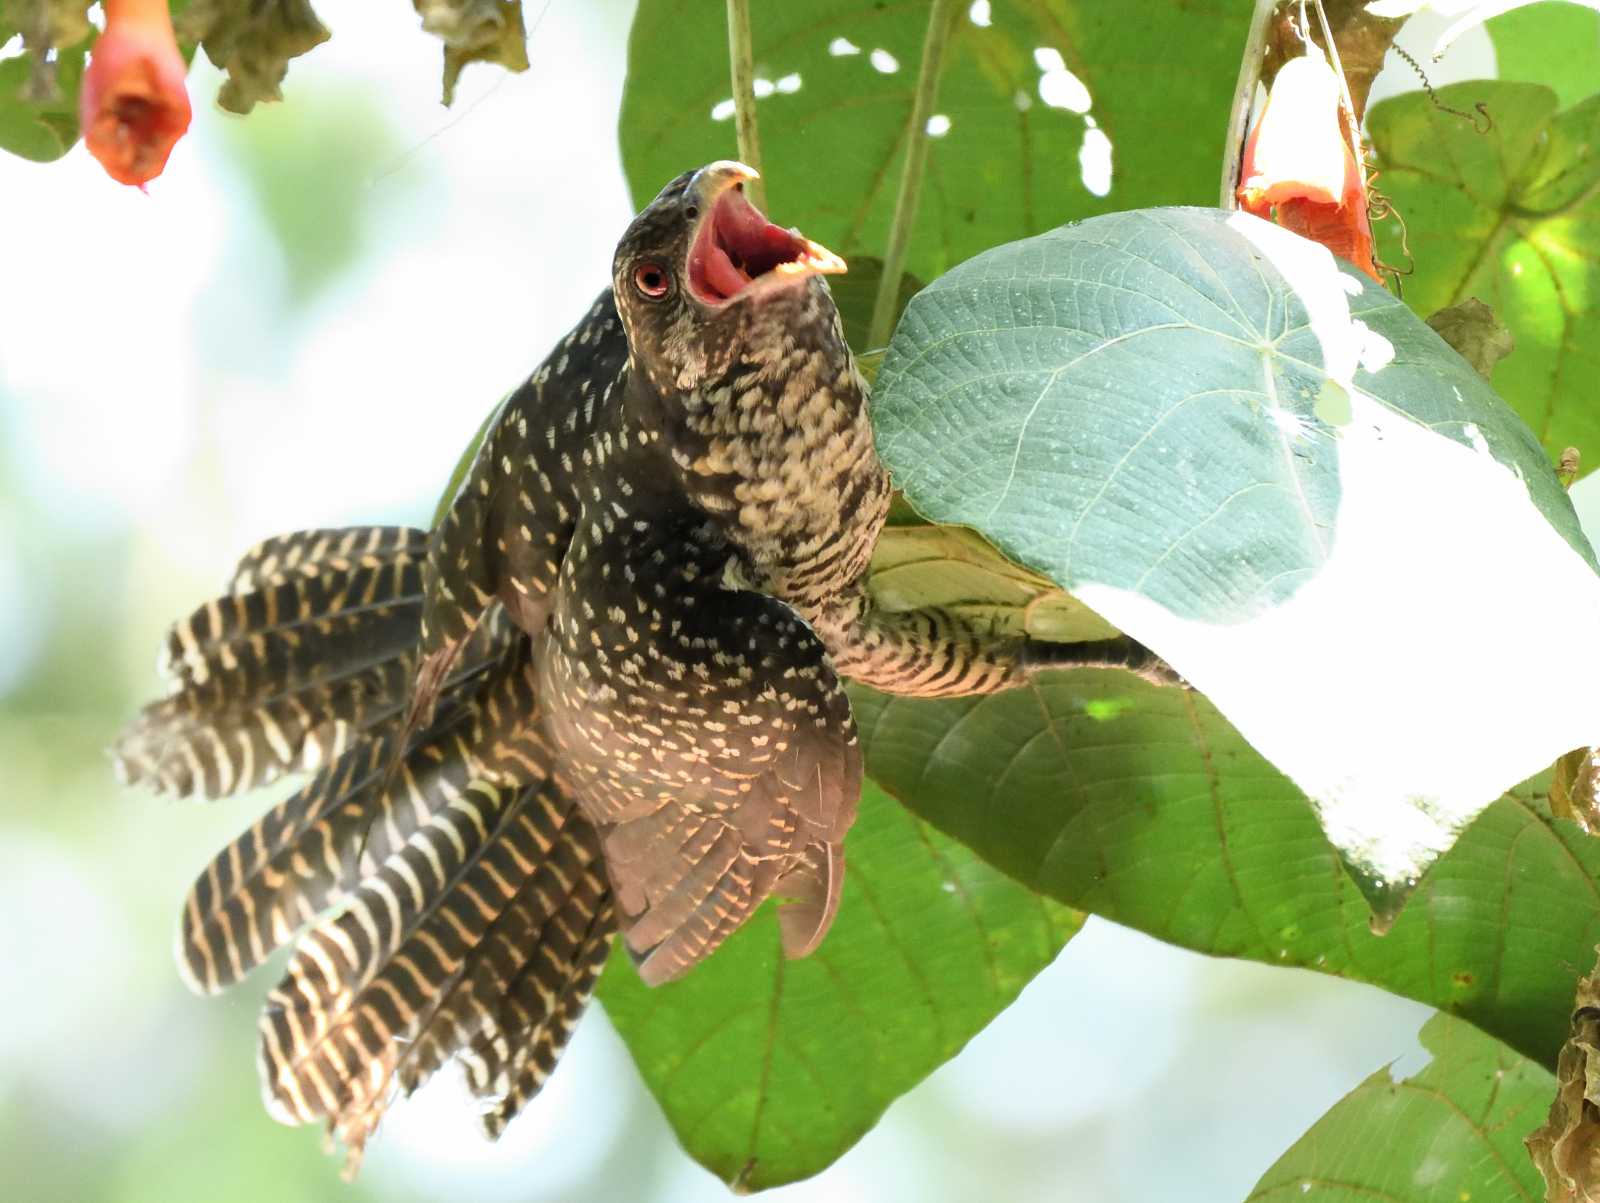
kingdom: Animalia
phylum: Chordata
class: Aves
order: Cuculiformes
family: Cuculidae
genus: Eudynamys
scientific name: Eudynamys scolopaceus
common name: Asian koel
